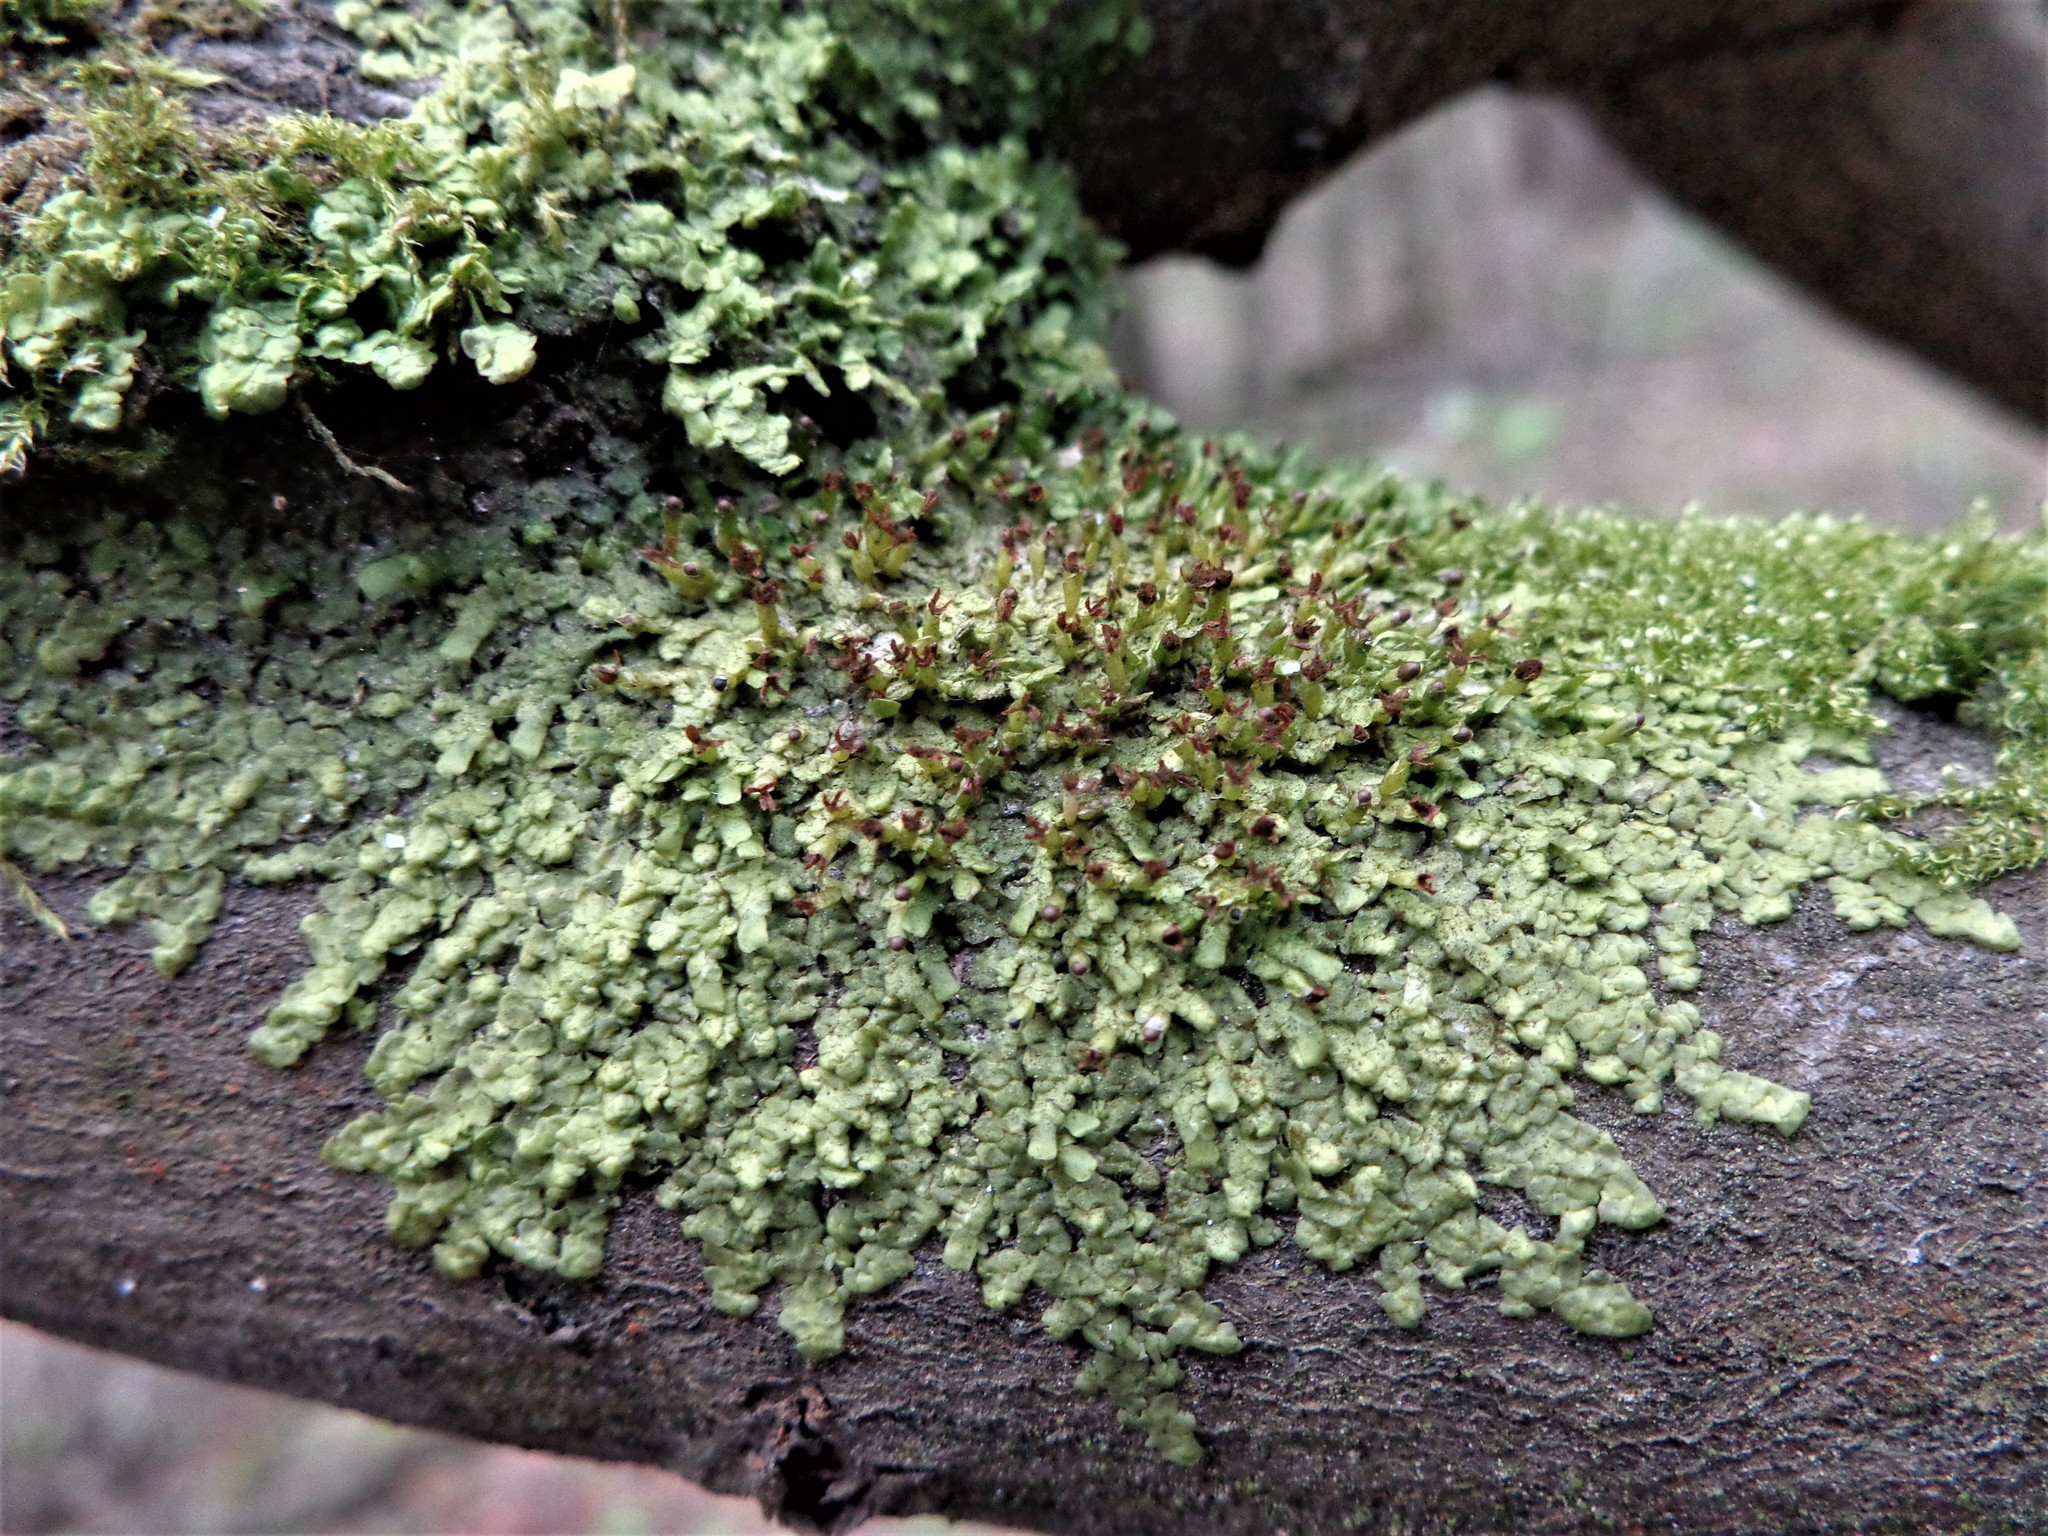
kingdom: Plantae
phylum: Marchantiophyta
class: Jungermanniopsida
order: Porellales
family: Radulaceae
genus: Radula
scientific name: Radula complanata
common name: Flat-leaved scalewort
